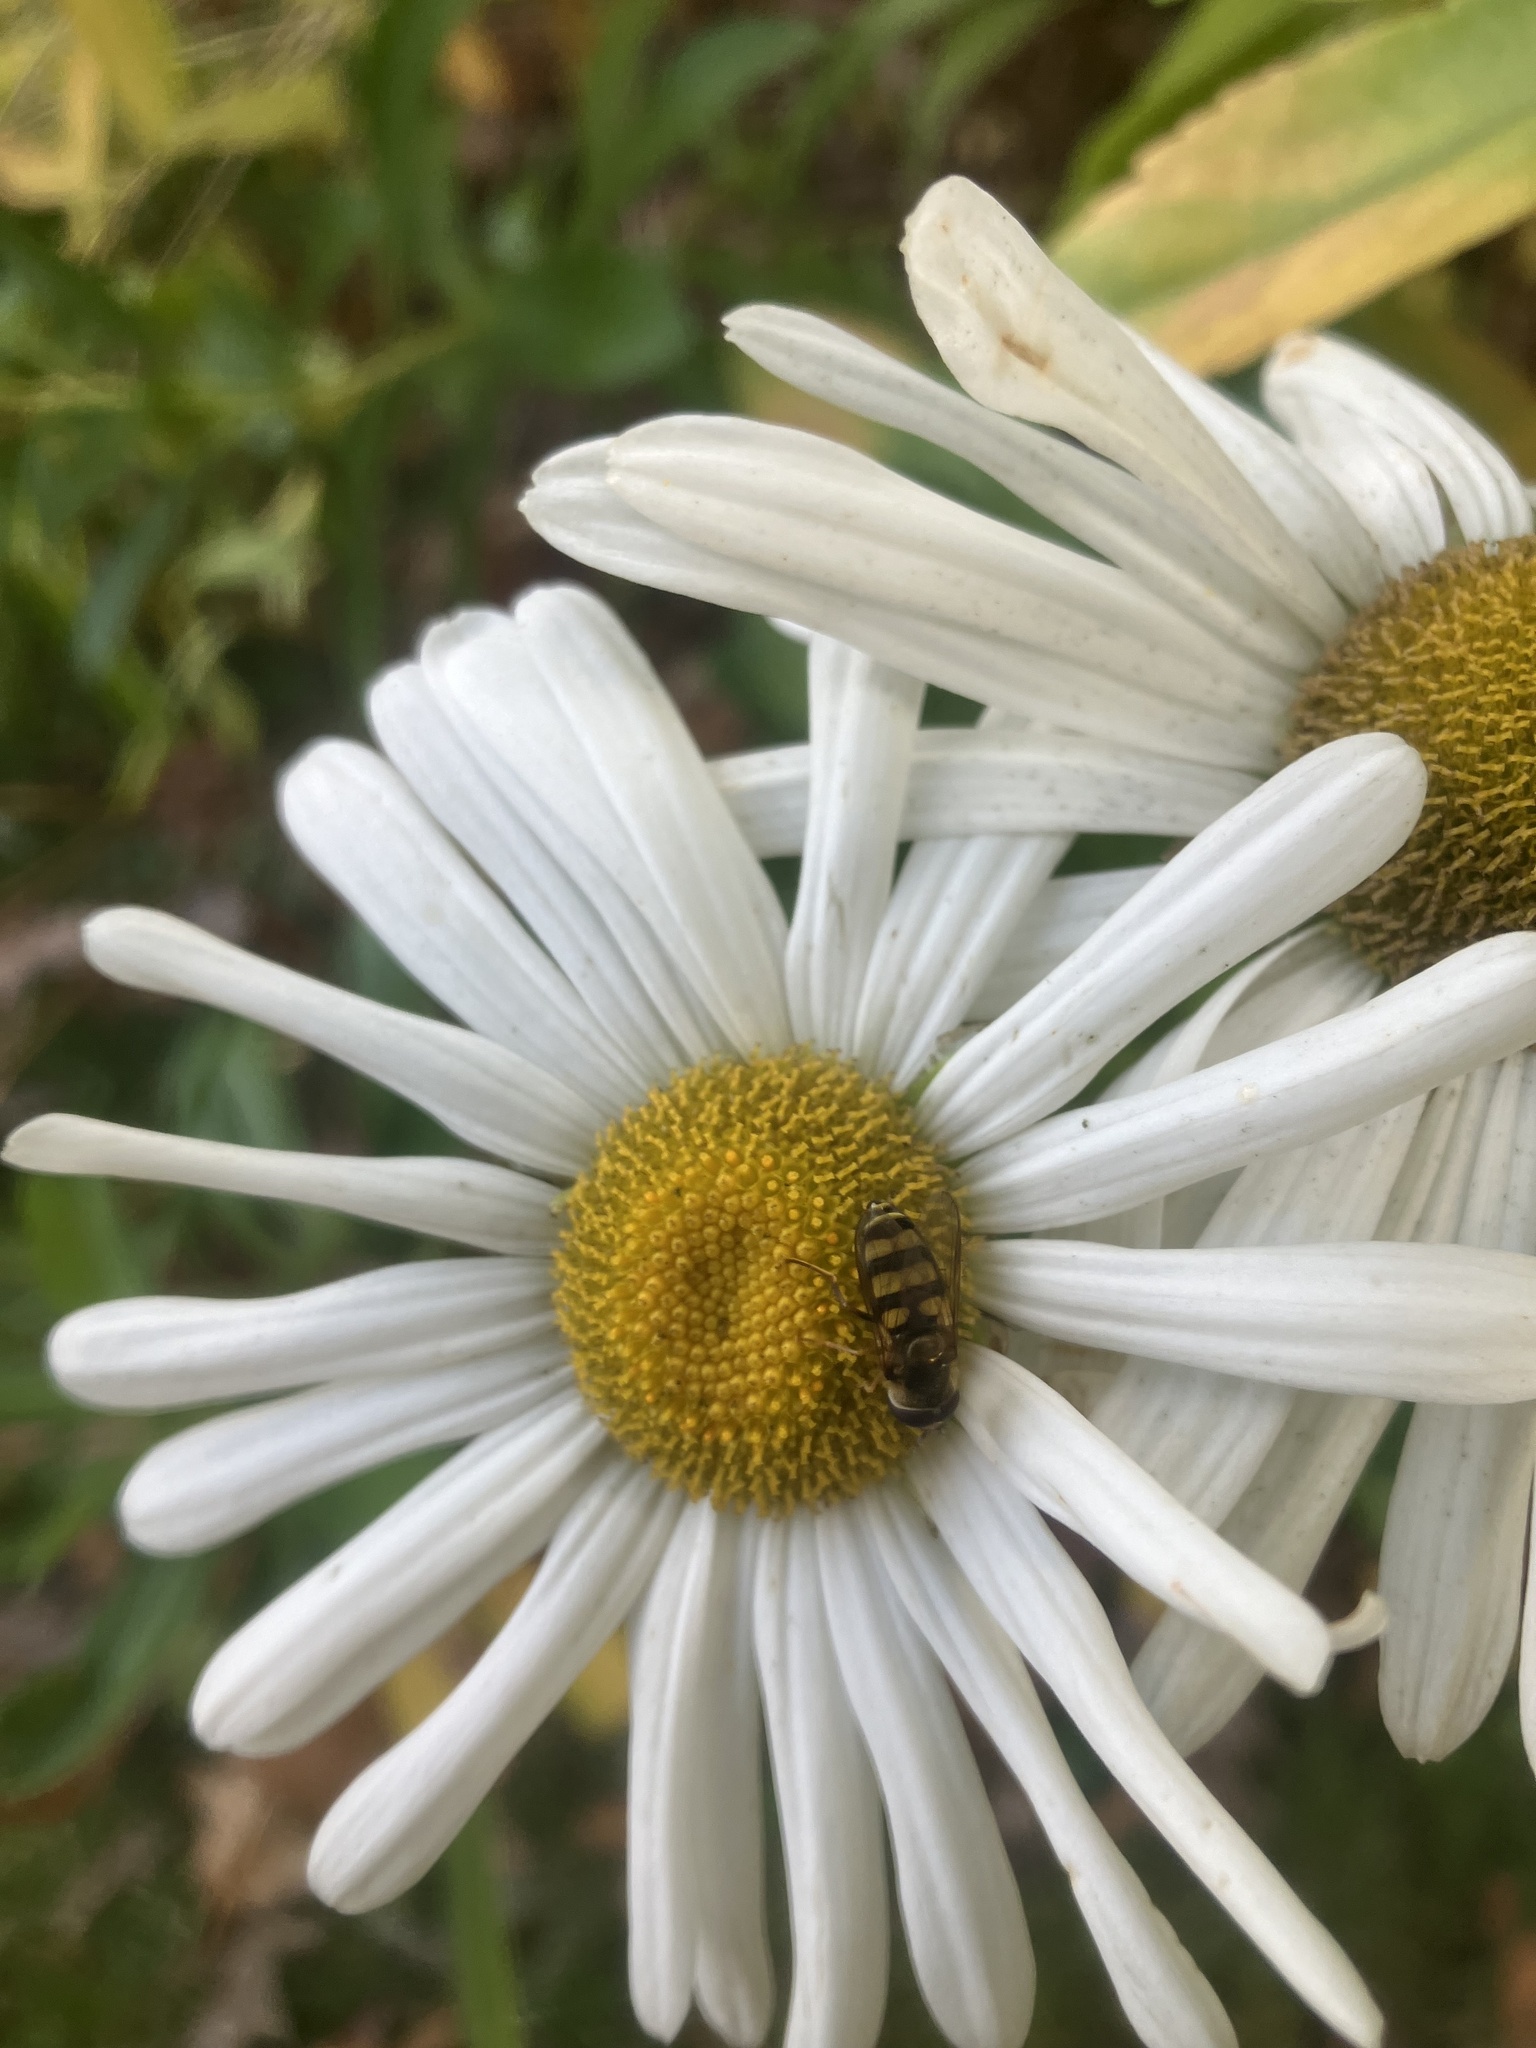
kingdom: Animalia
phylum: Arthropoda
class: Insecta
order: Diptera
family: Syrphidae
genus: Eupeodes
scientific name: Eupeodes
